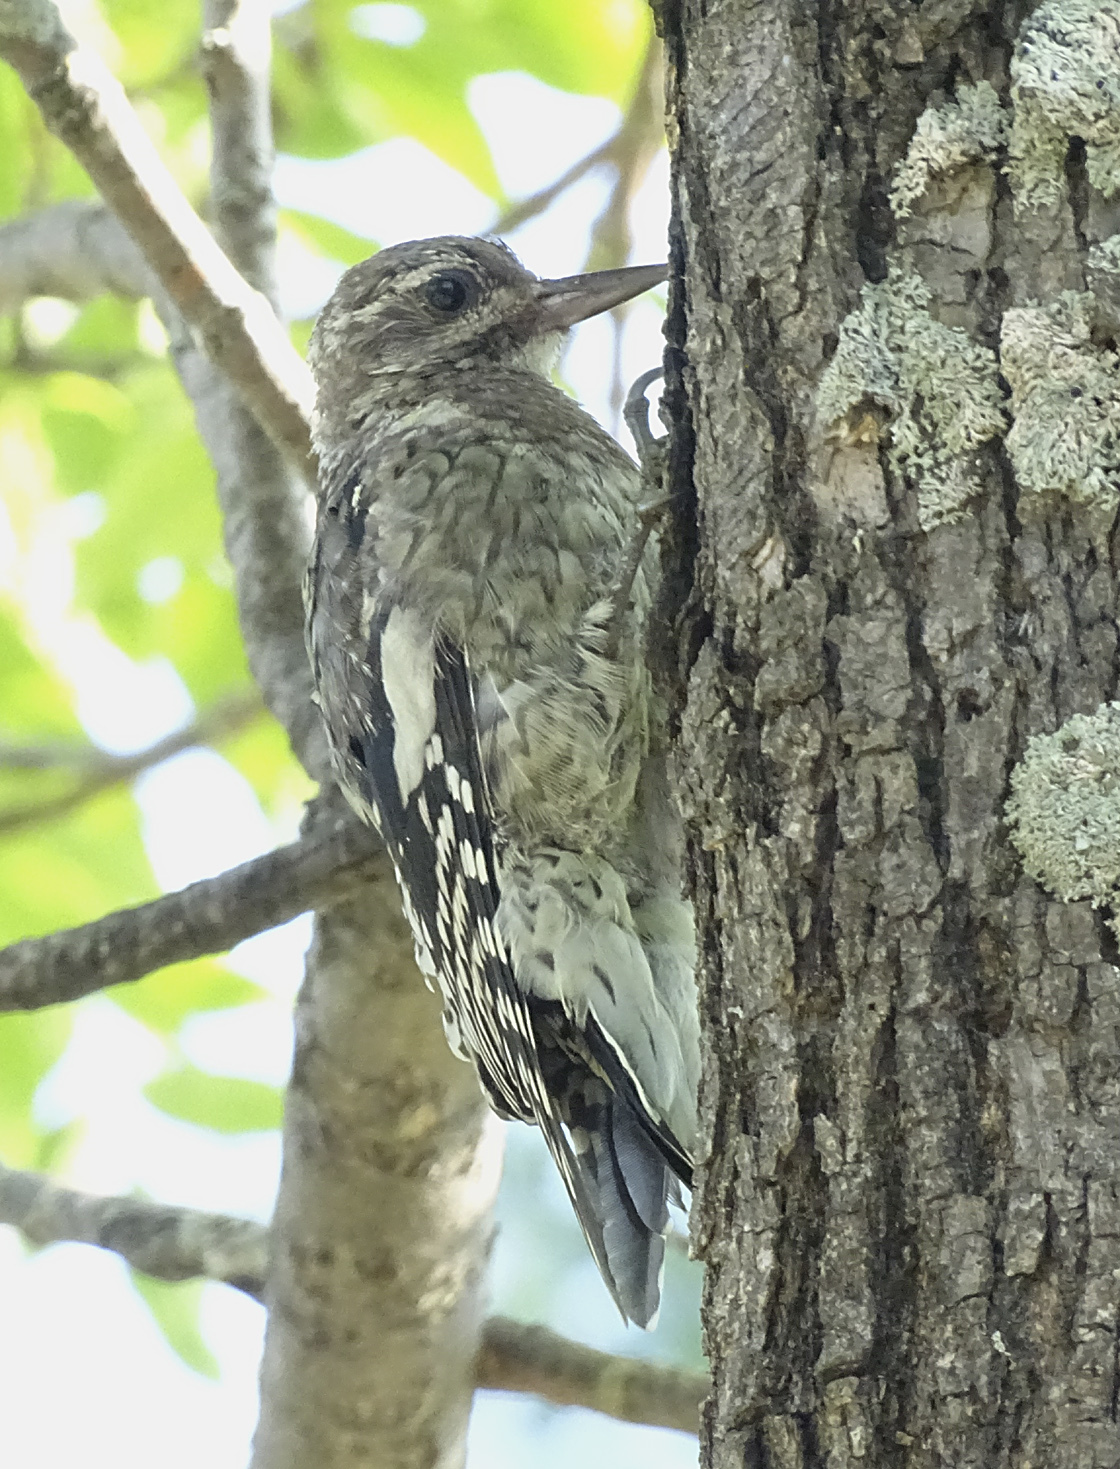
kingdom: Animalia
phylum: Chordata
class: Aves
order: Piciformes
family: Picidae
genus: Sphyrapicus
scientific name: Sphyrapicus varius
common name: Yellow-bellied sapsucker
